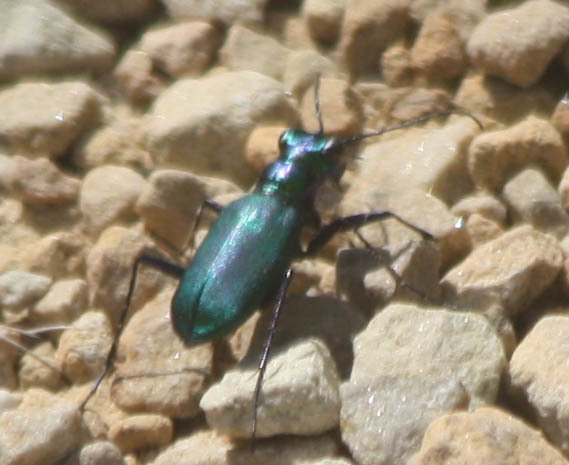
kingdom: Animalia
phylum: Arthropoda
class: Insecta
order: Coleoptera
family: Carabidae
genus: Cicindela
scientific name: Cicindela sexguttata
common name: Six-spotted tiger beetle
